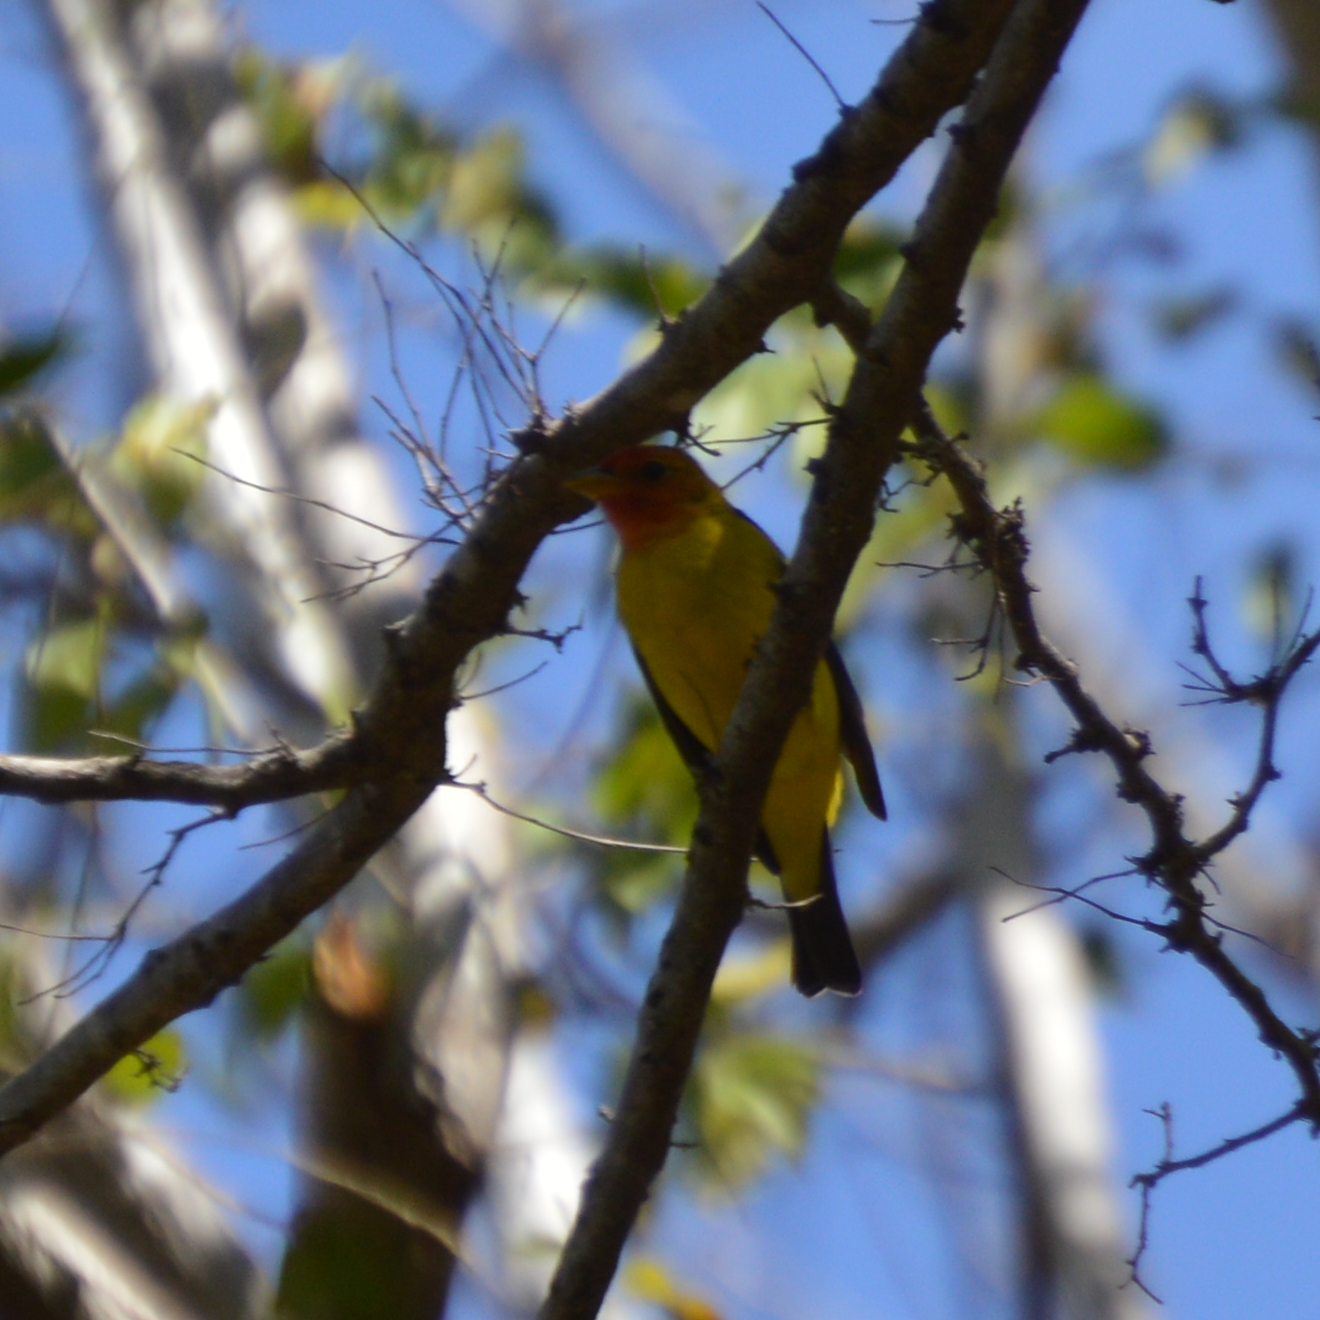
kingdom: Animalia
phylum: Chordata
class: Aves
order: Passeriformes
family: Cardinalidae
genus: Piranga
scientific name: Piranga ludoviciana
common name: Western tanager
